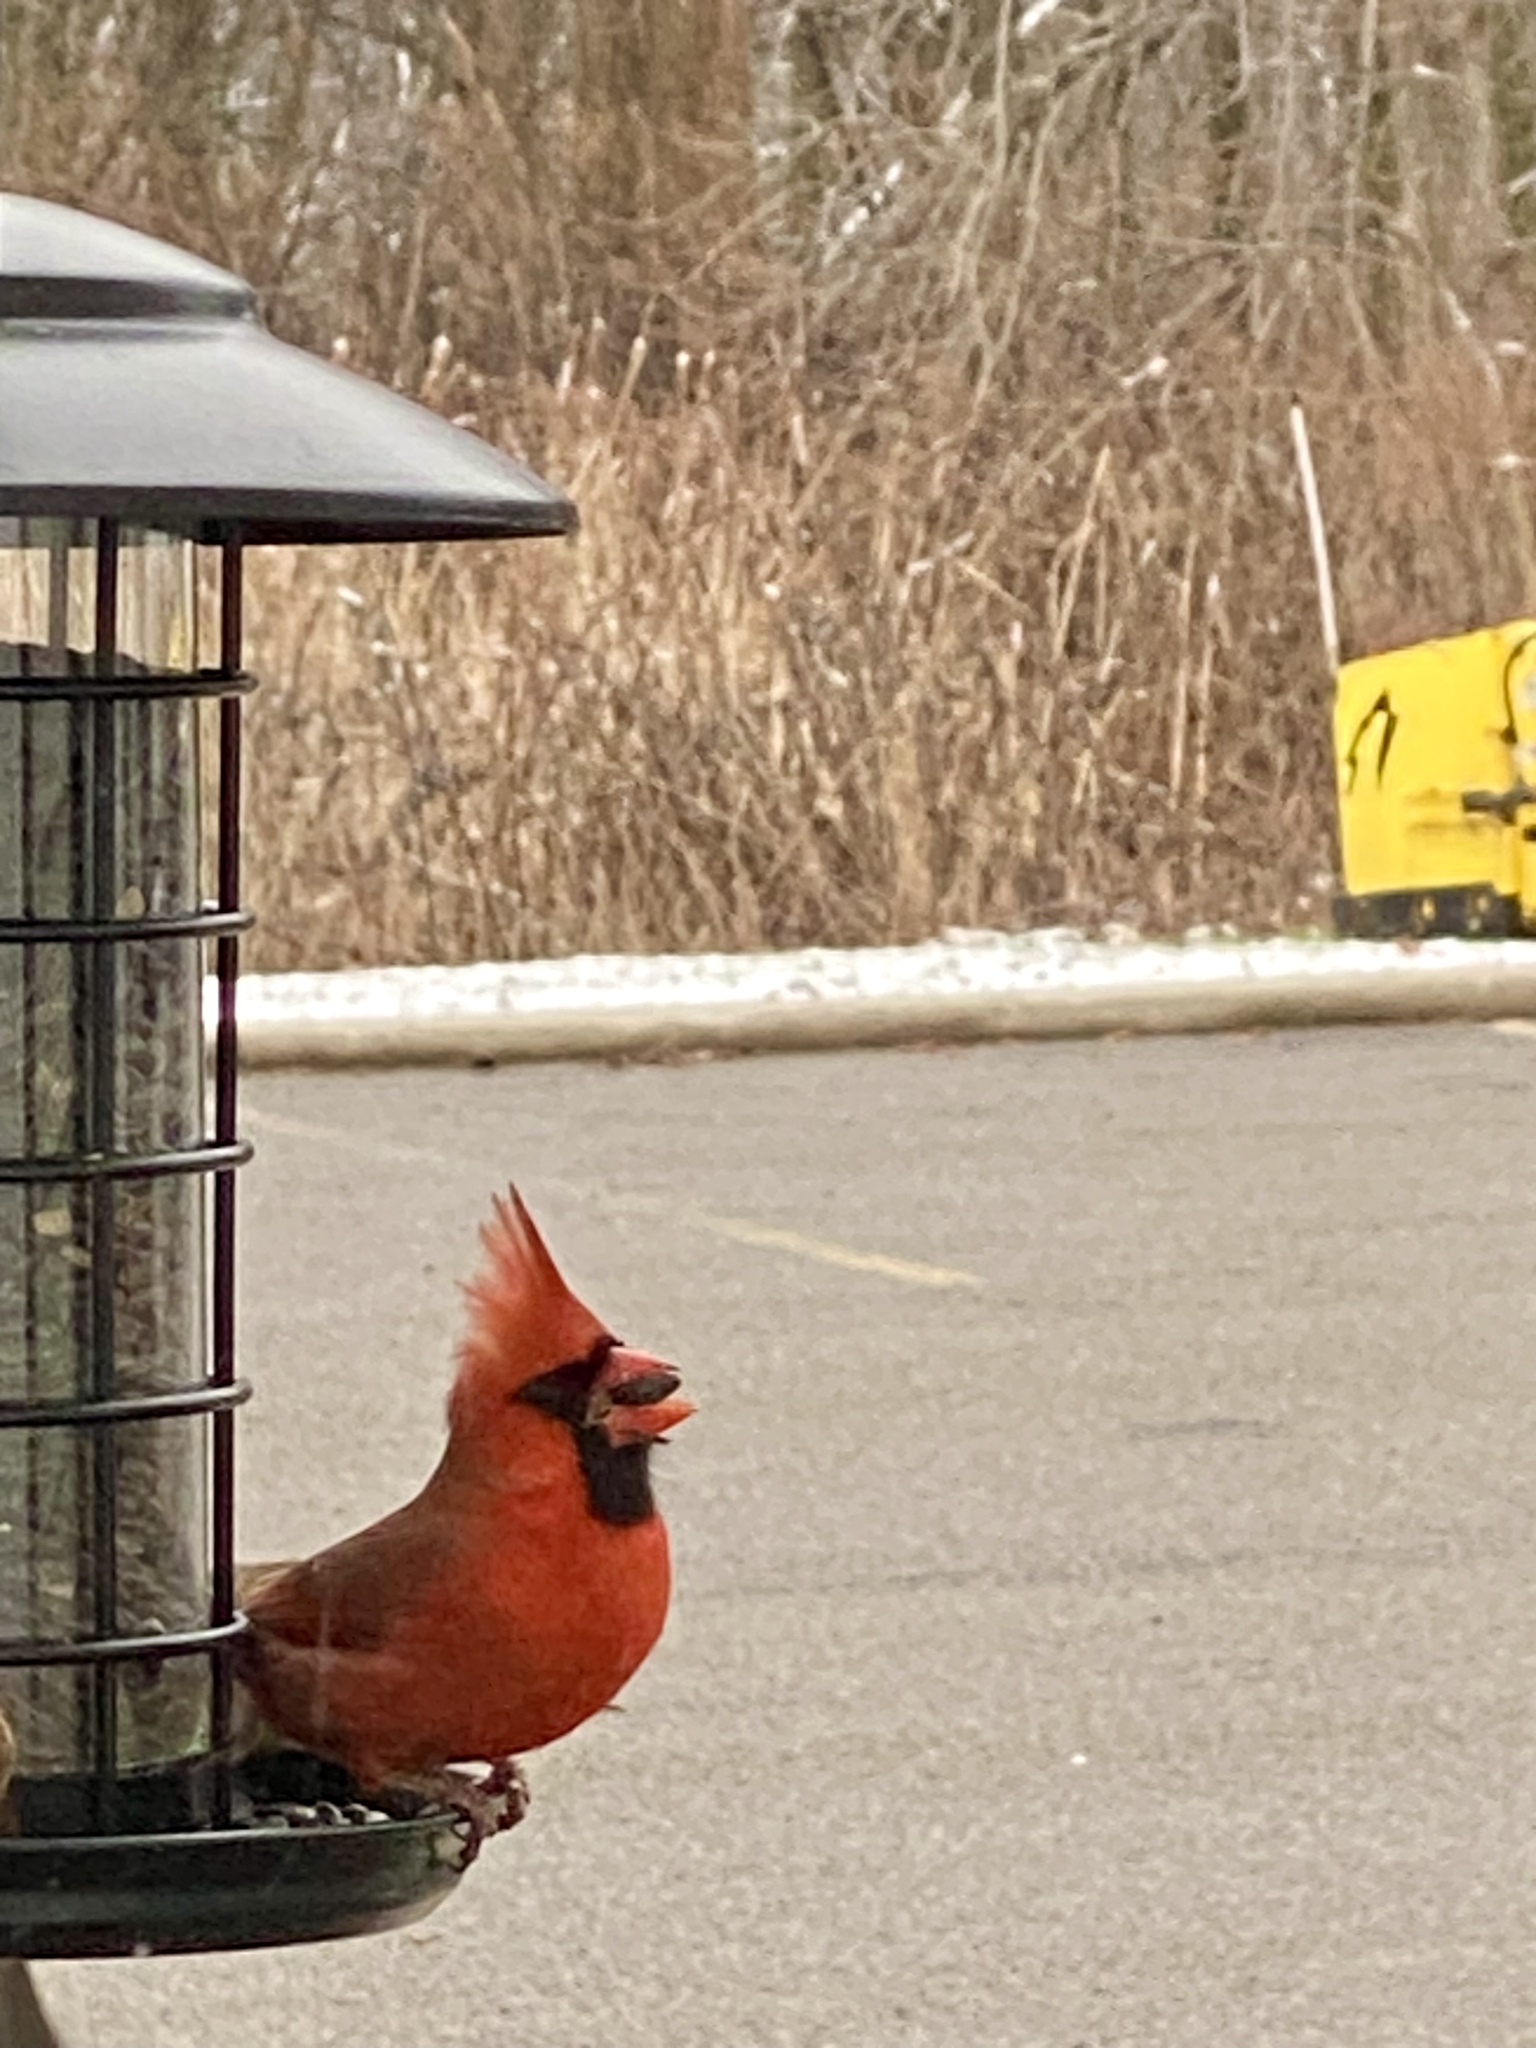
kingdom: Animalia
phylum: Chordata
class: Aves
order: Passeriformes
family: Cardinalidae
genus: Cardinalis
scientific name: Cardinalis cardinalis
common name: Northern cardinal
